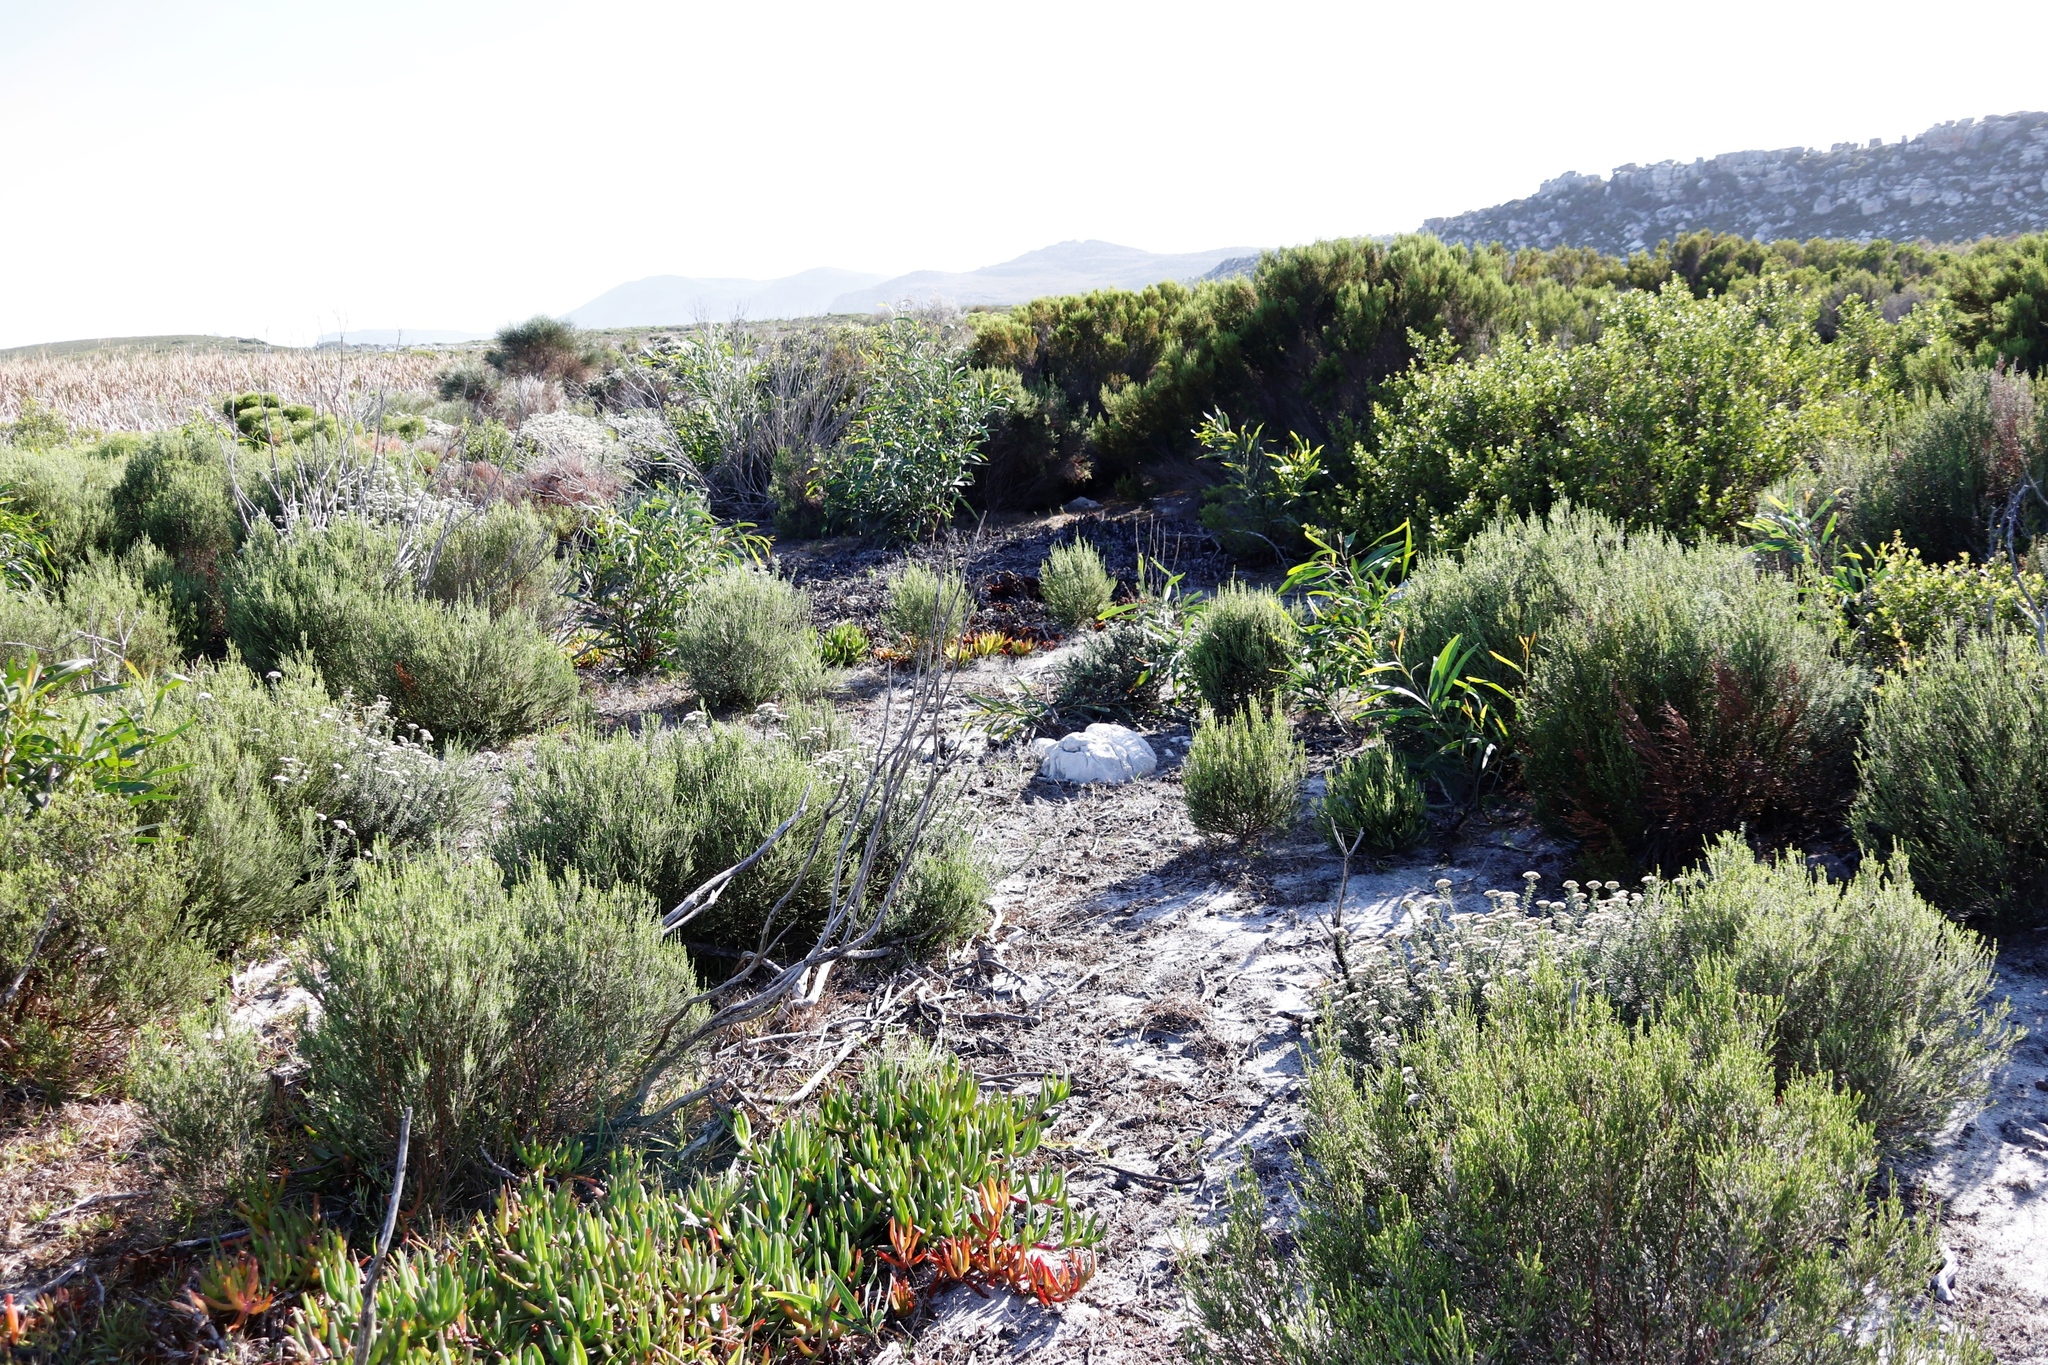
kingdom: Plantae
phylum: Tracheophyta
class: Magnoliopsida
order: Fabales
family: Fabaceae
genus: Acacia
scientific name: Acacia saligna
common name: Orange wattle
